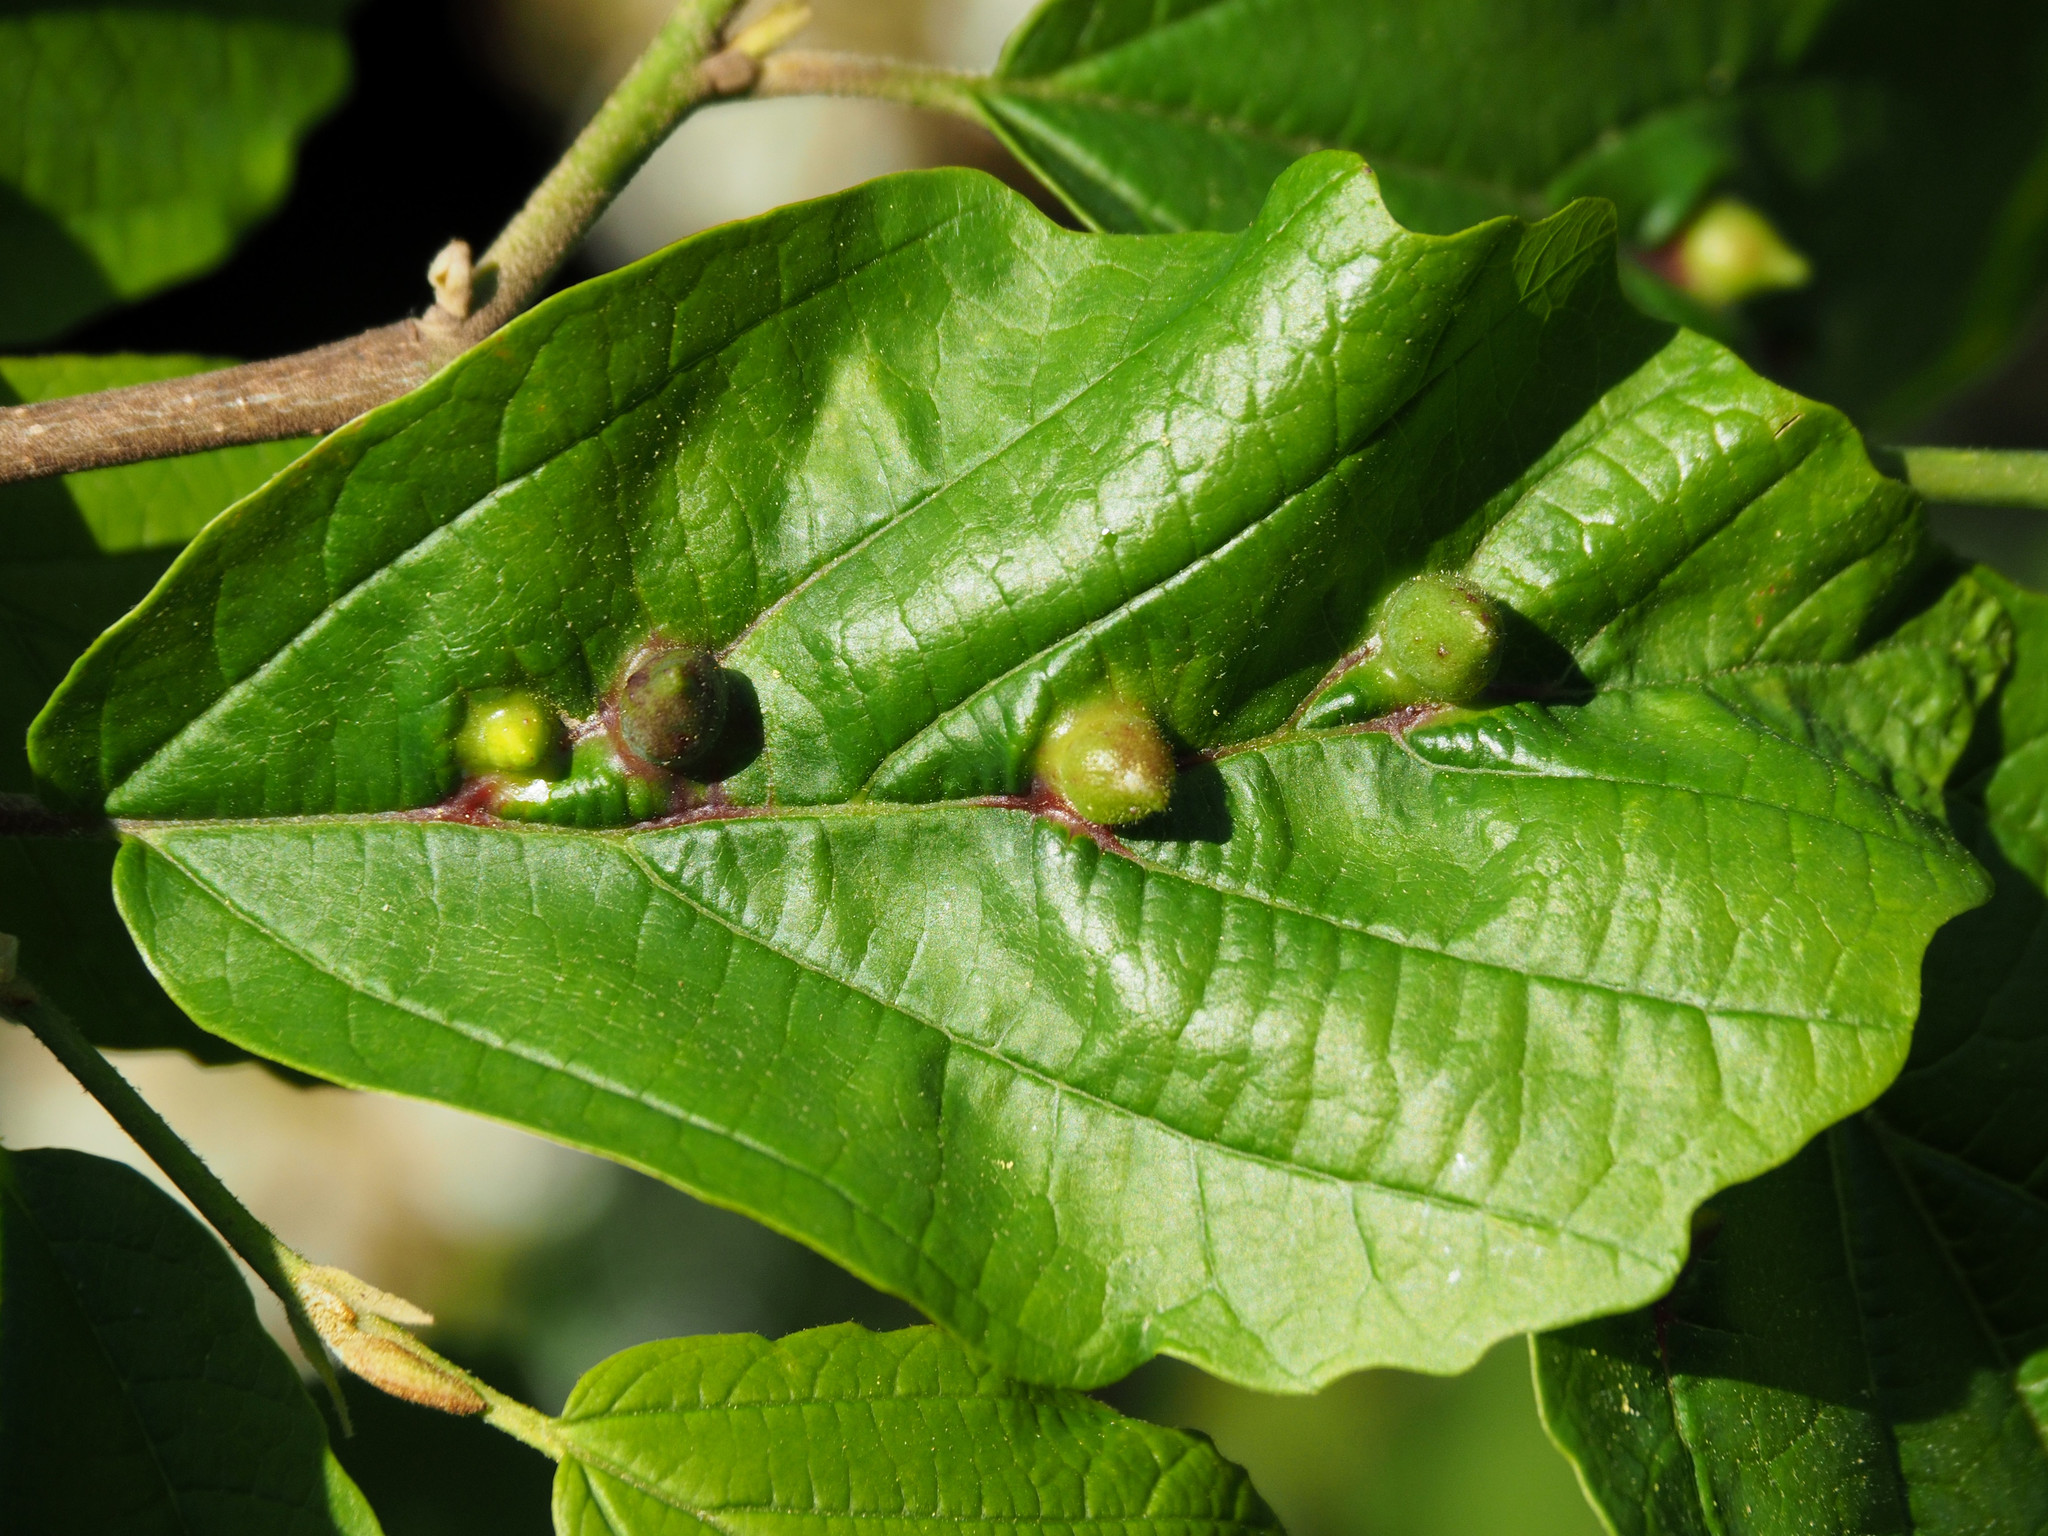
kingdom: Animalia
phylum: Arthropoda
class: Insecta
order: Hemiptera
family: Aphididae
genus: Hormaphis
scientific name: Hormaphis hamamelidis
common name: Witch-hazel cone gall aphid
